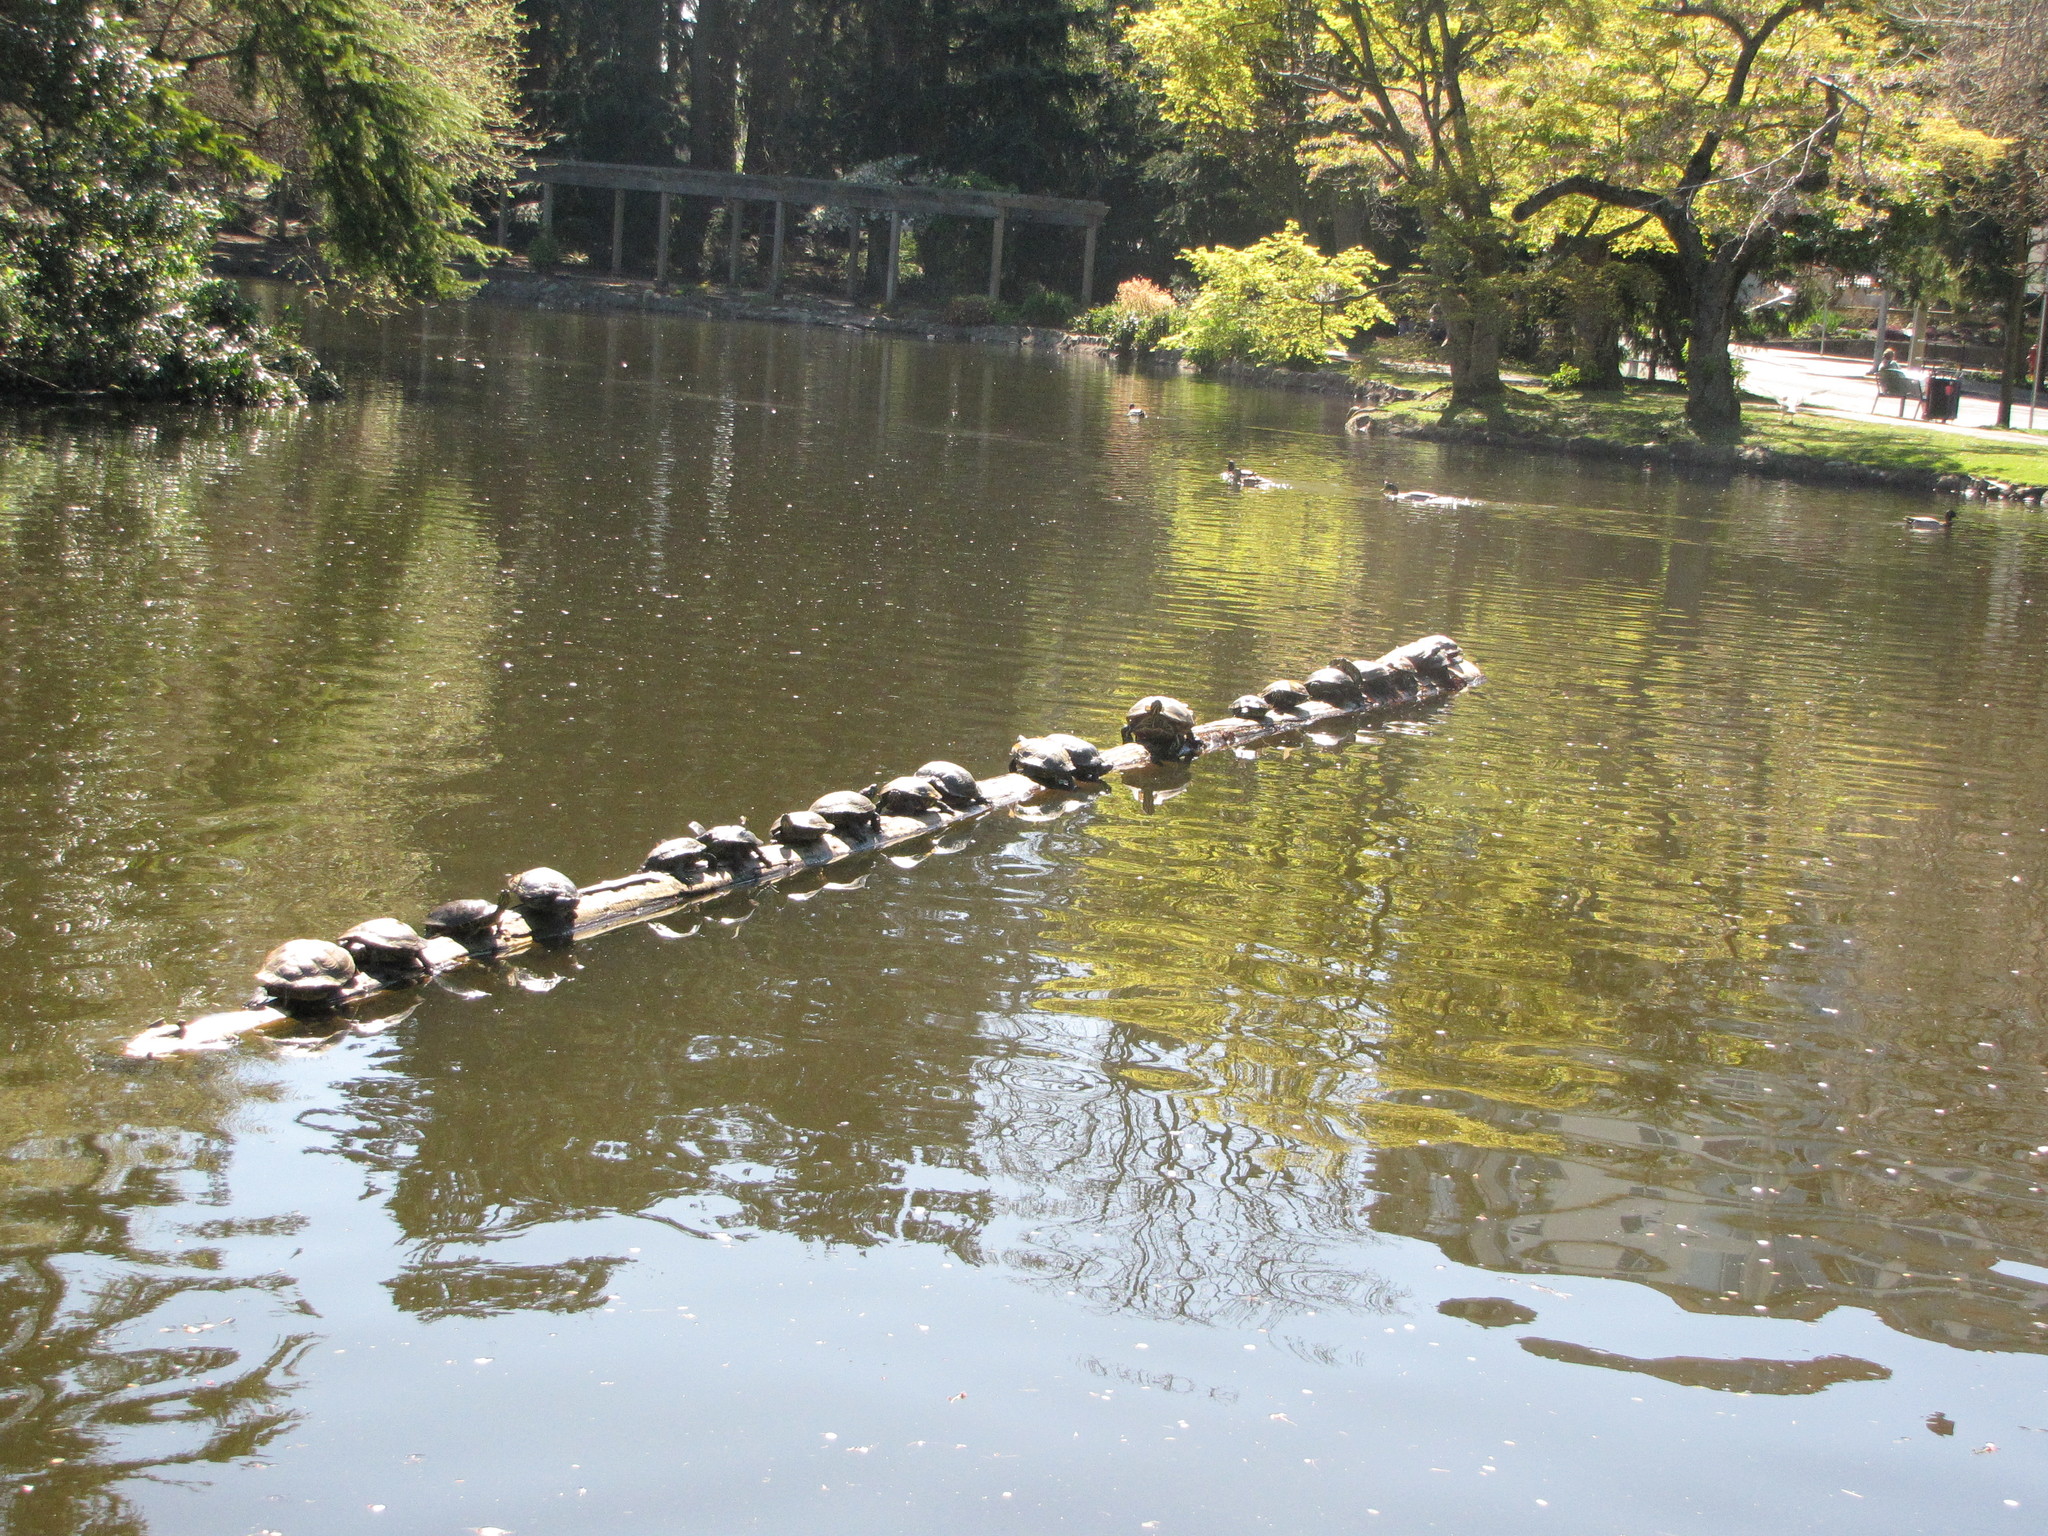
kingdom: Animalia
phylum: Chordata
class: Testudines
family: Emydidae
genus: Trachemys
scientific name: Trachemys scripta
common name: Slider
